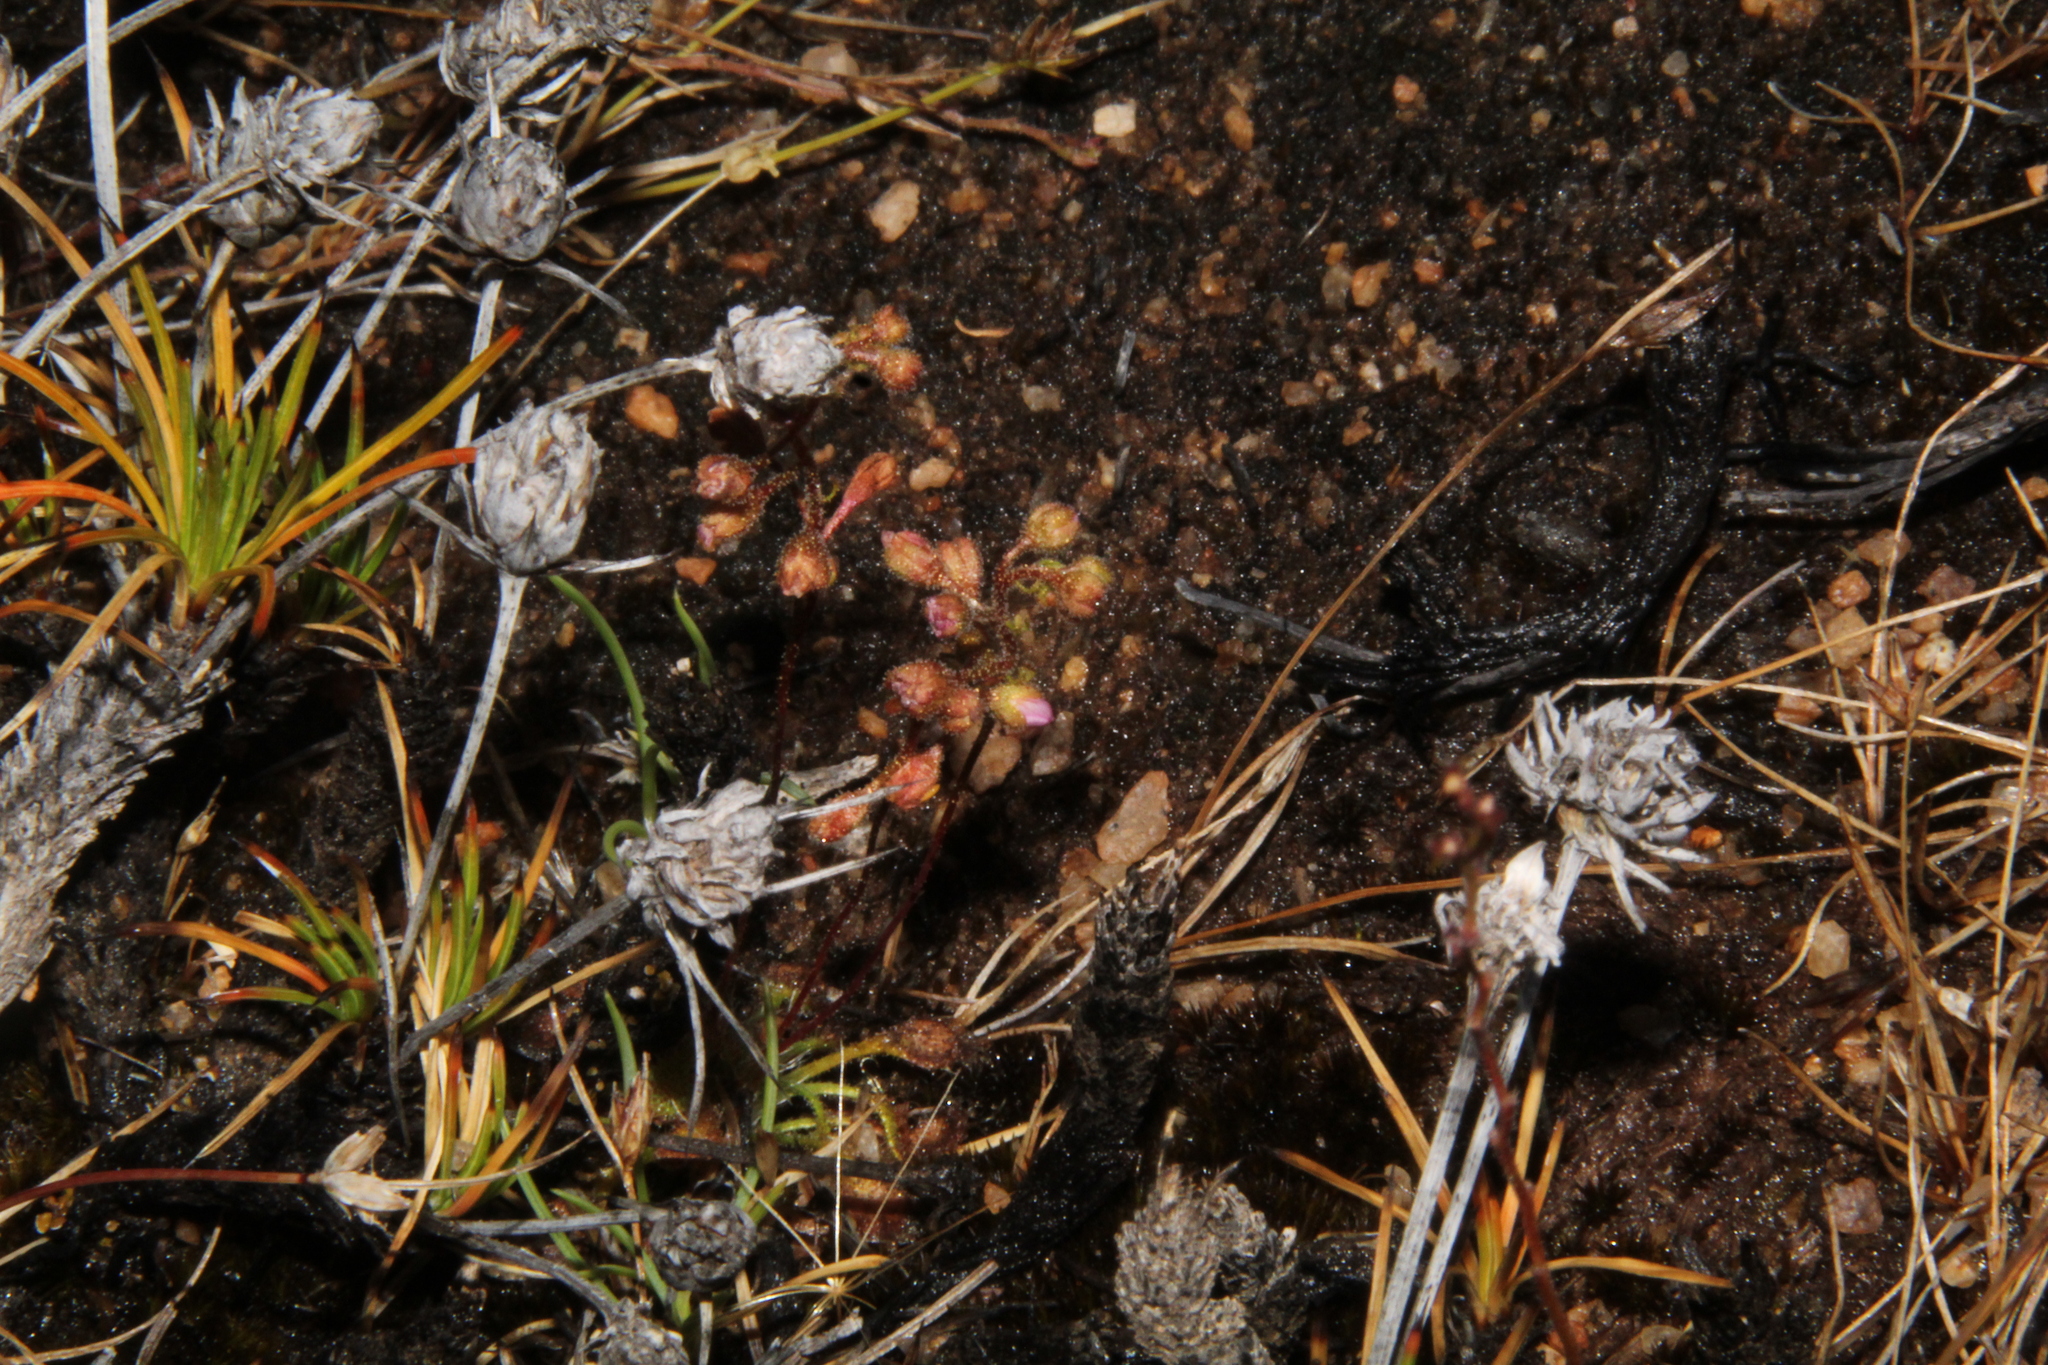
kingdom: Plantae
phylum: Tracheophyta
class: Magnoliopsida
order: Caryophyllales
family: Droseraceae
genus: Drosera
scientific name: Drosera nitidula
